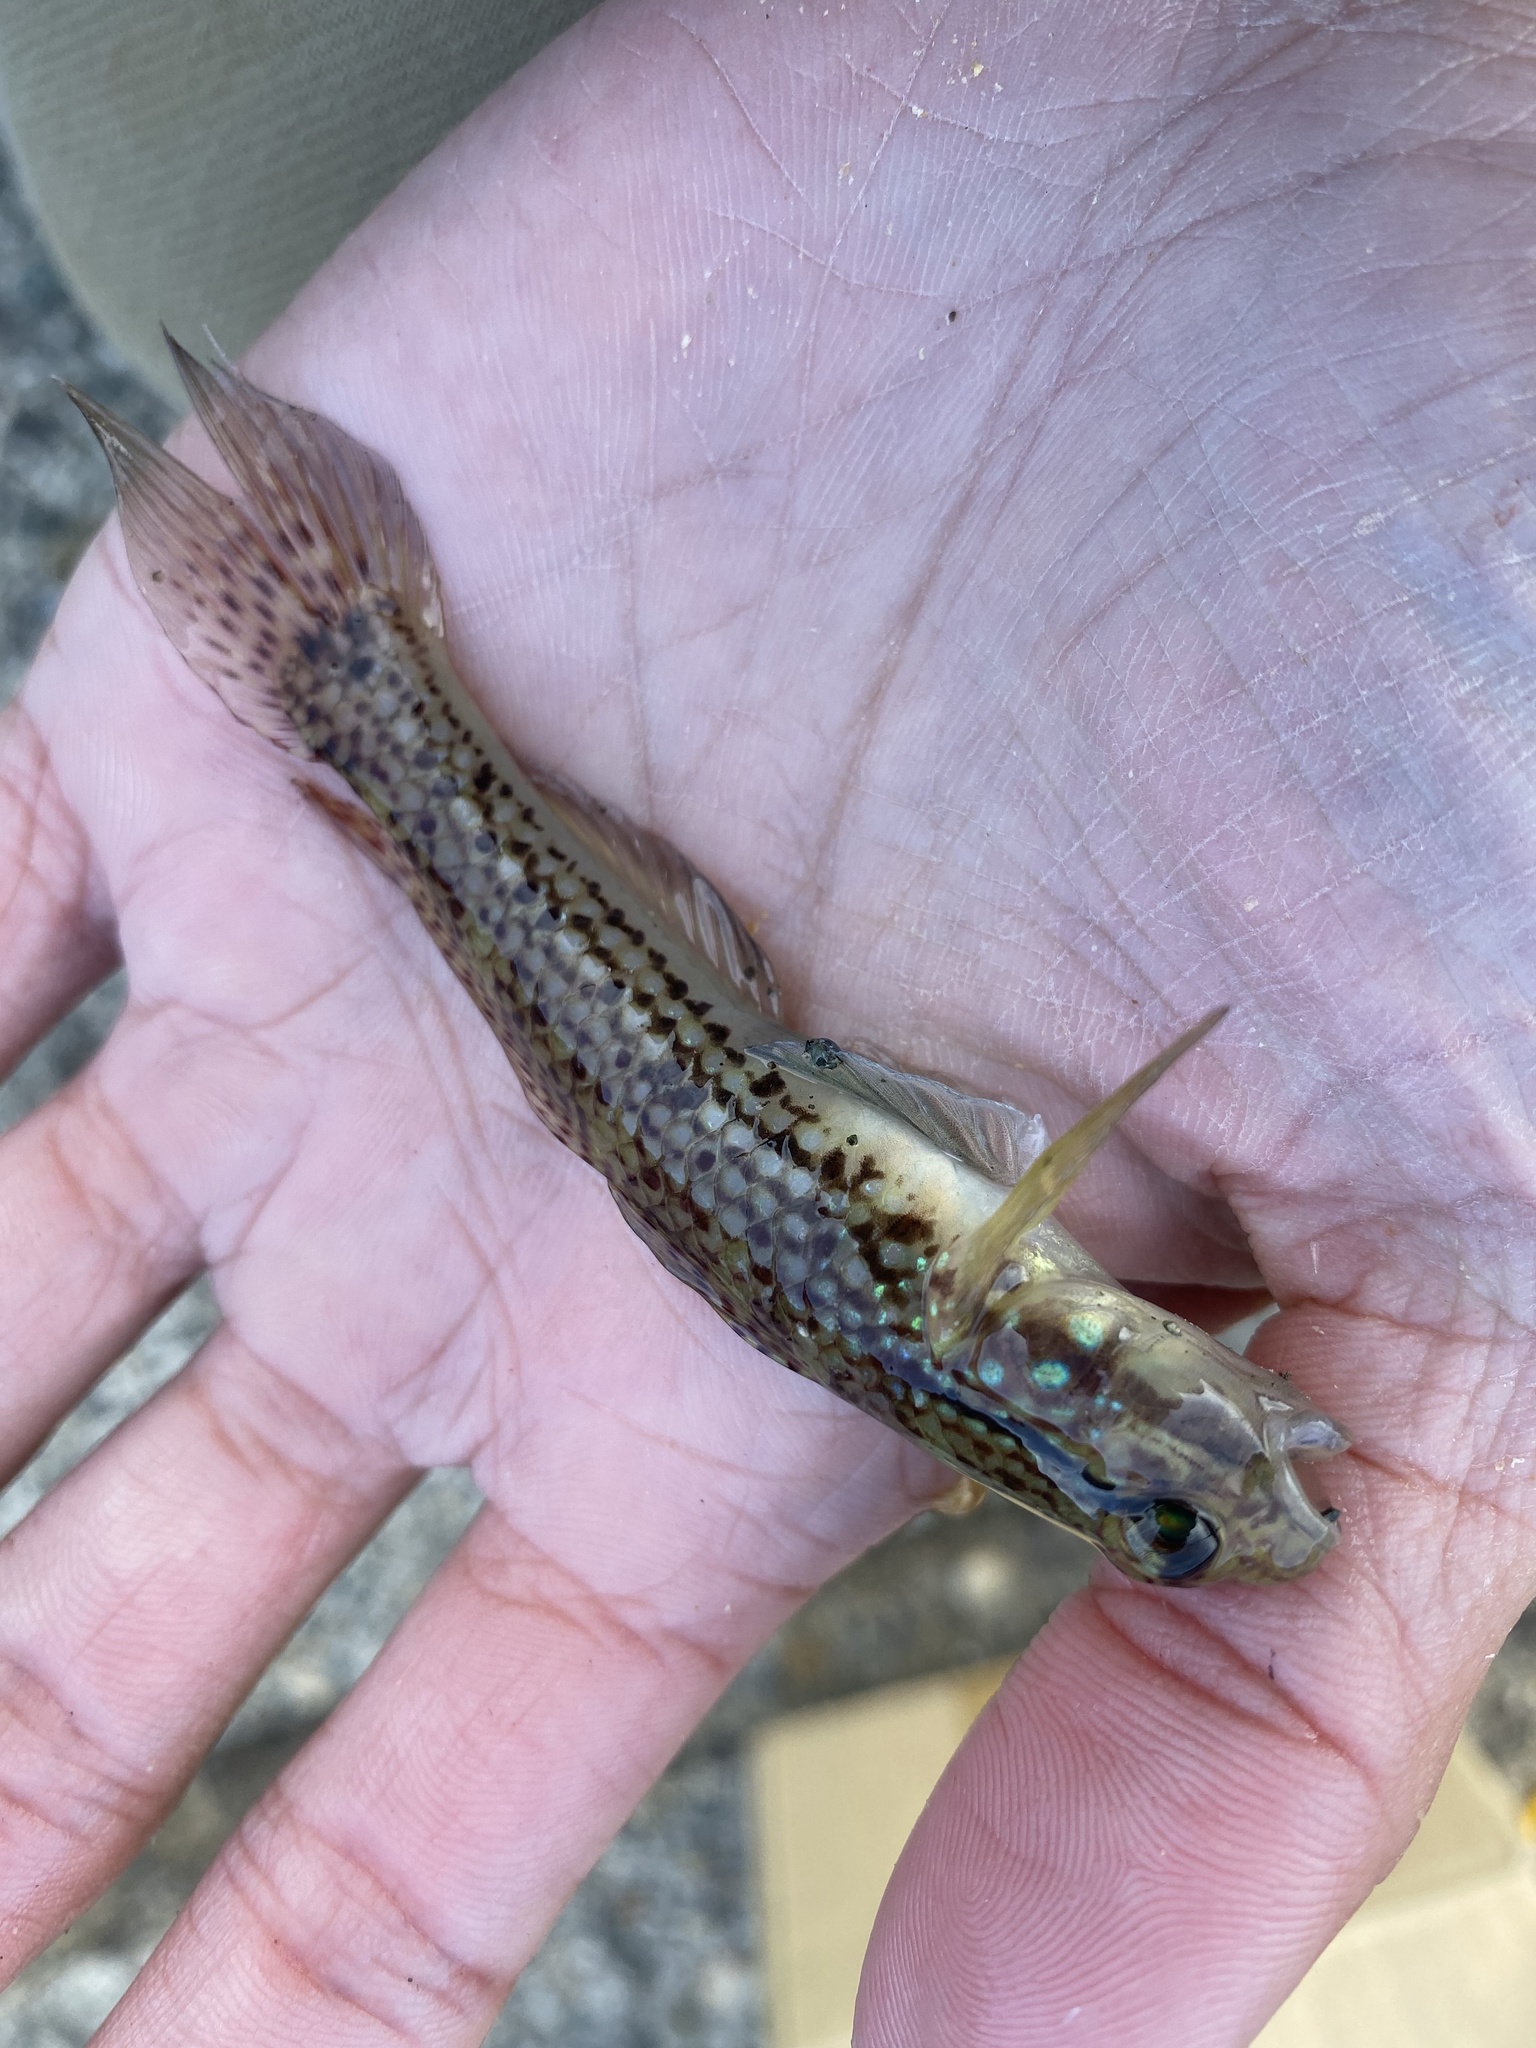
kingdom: Animalia
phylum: Chordata
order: Perciformes
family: Gobiidae
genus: Istigobius
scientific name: Istigobius campbelli
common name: Campbel's goby
